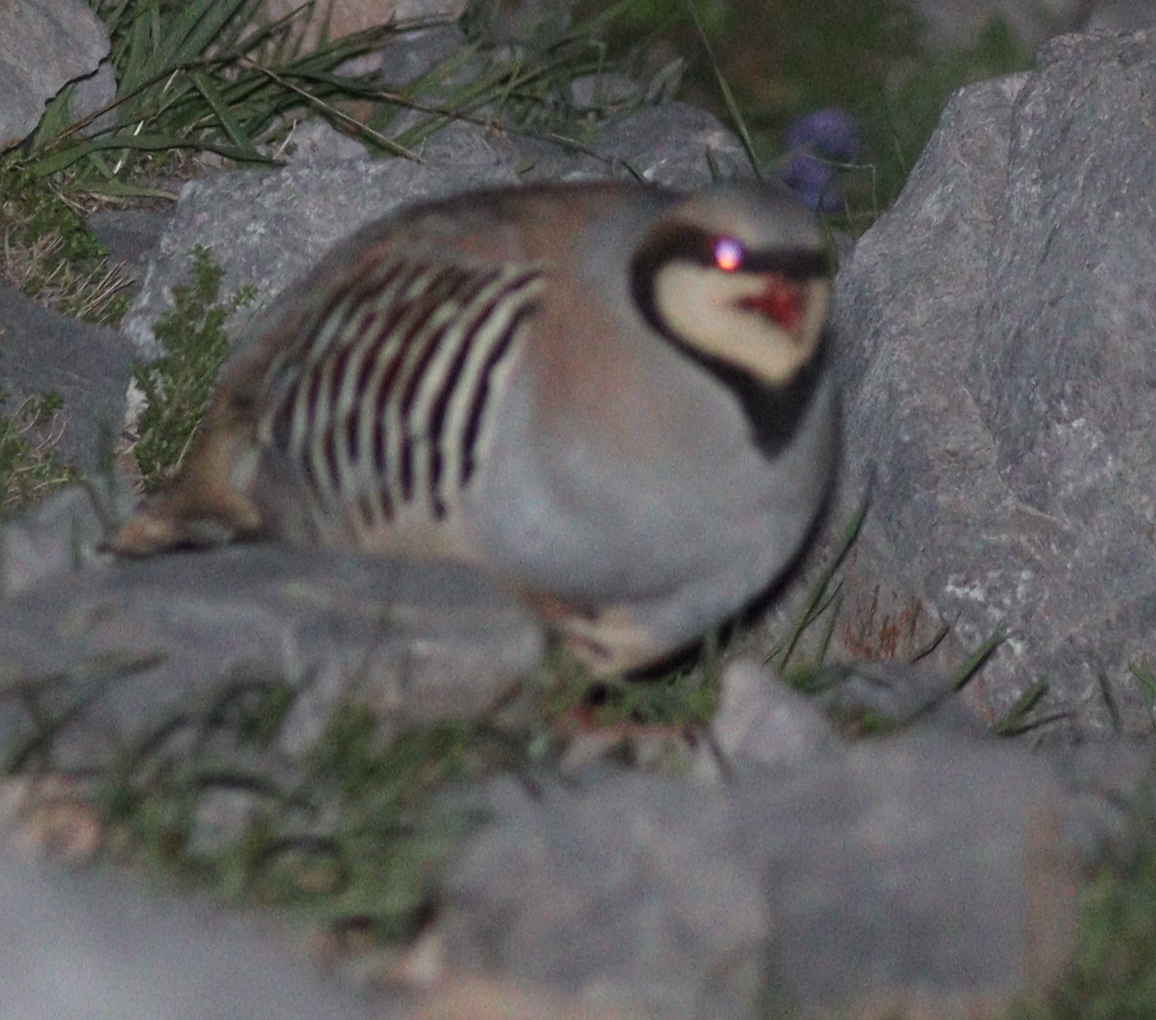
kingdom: Animalia
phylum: Chordata
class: Aves
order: Galliformes
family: Phasianidae
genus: Alectoris
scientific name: Alectoris chukar
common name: Chukar
